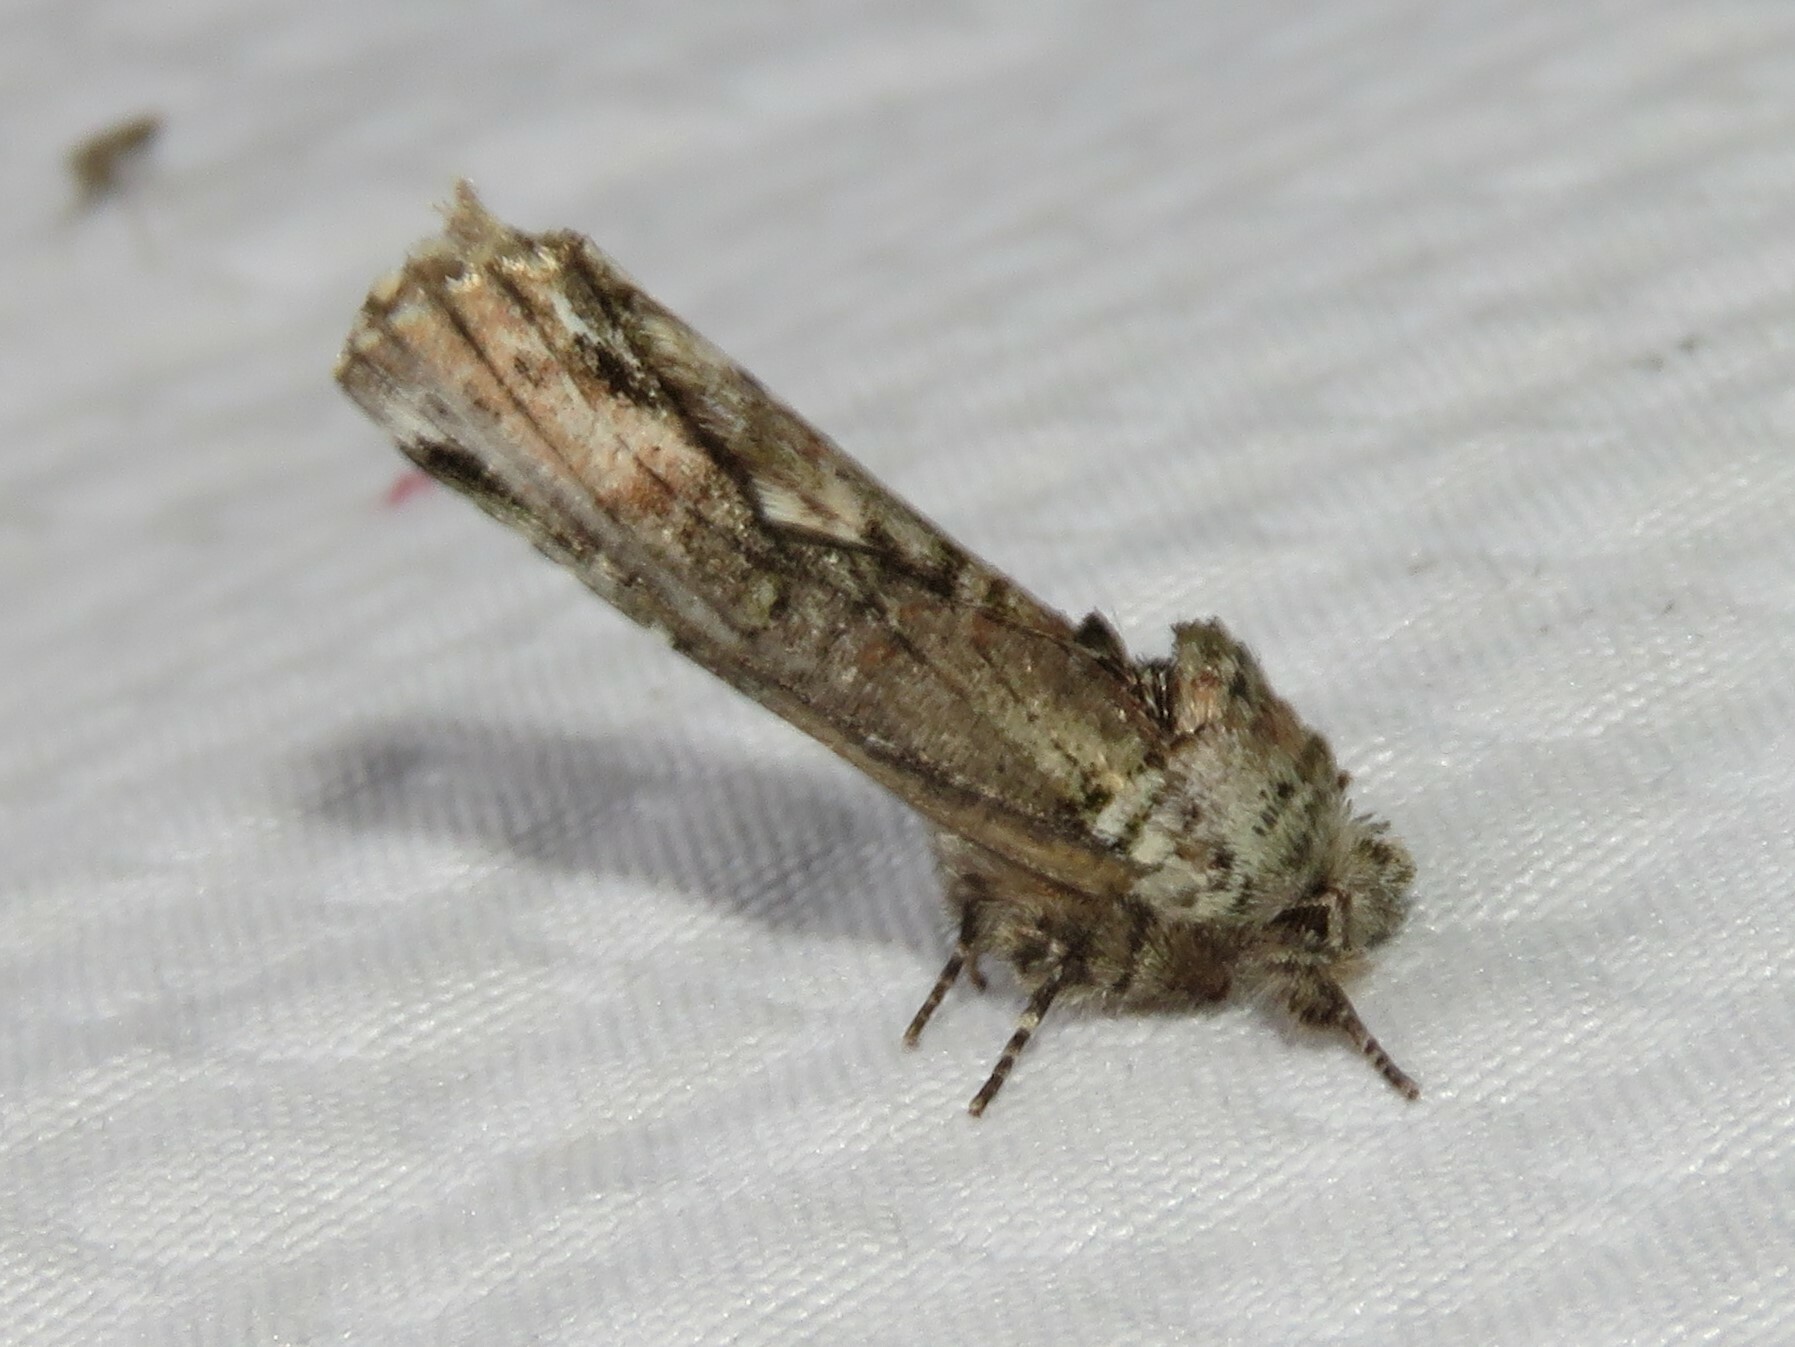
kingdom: Animalia
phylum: Arthropoda
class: Insecta
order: Lepidoptera
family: Notodontidae
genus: Schizura
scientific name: Schizura
